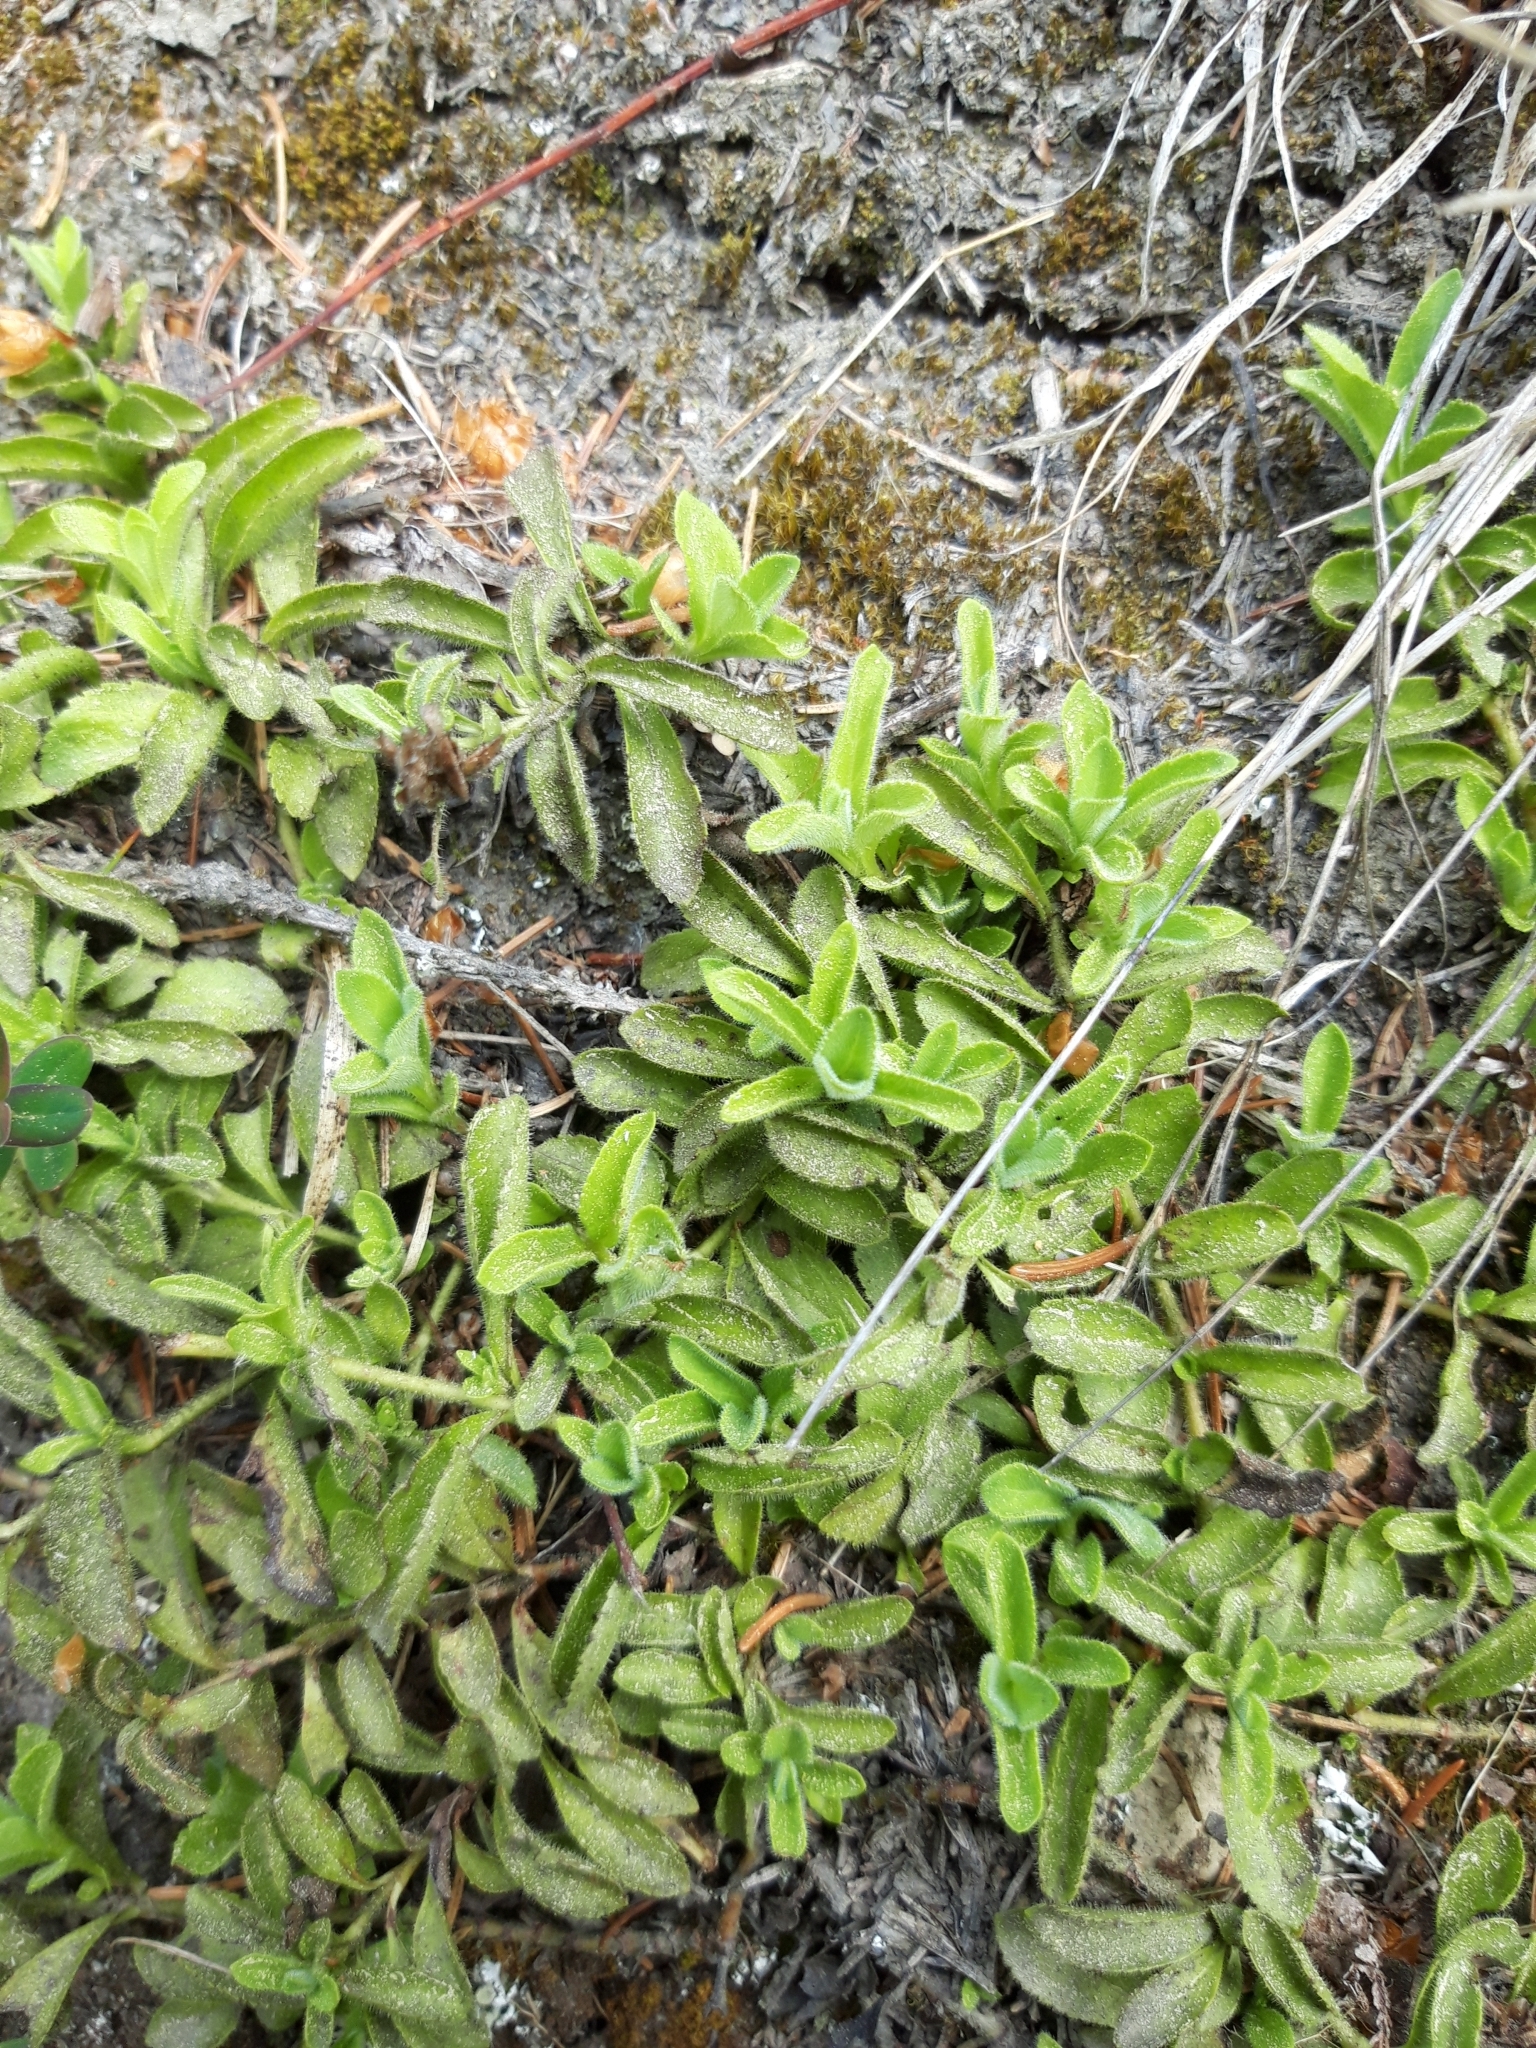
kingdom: Plantae
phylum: Tracheophyta
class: Magnoliopsida
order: Lamiales
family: Plantaginaceae
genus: Veronica
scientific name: Veronica officinalis
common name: Common speedwell
